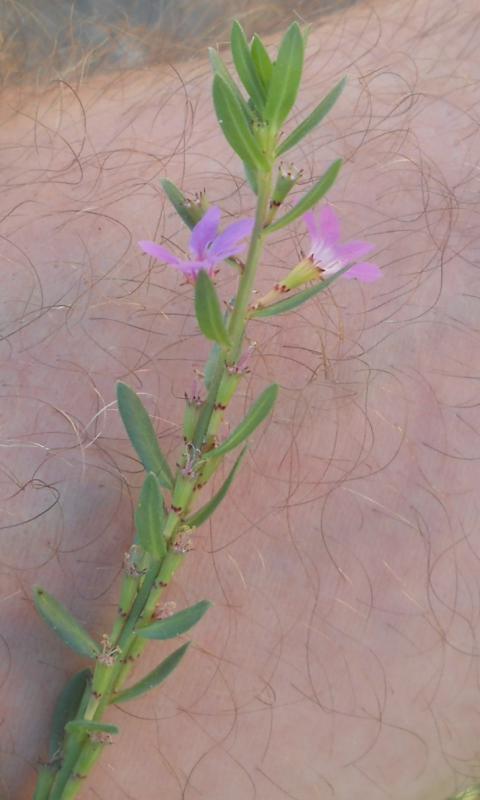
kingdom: Plantae
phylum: Tracheophyta
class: Magnoliopsida
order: Myrtales
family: Lythraceae
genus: Lythrum
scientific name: Lythrum junceum
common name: False grass-poly
